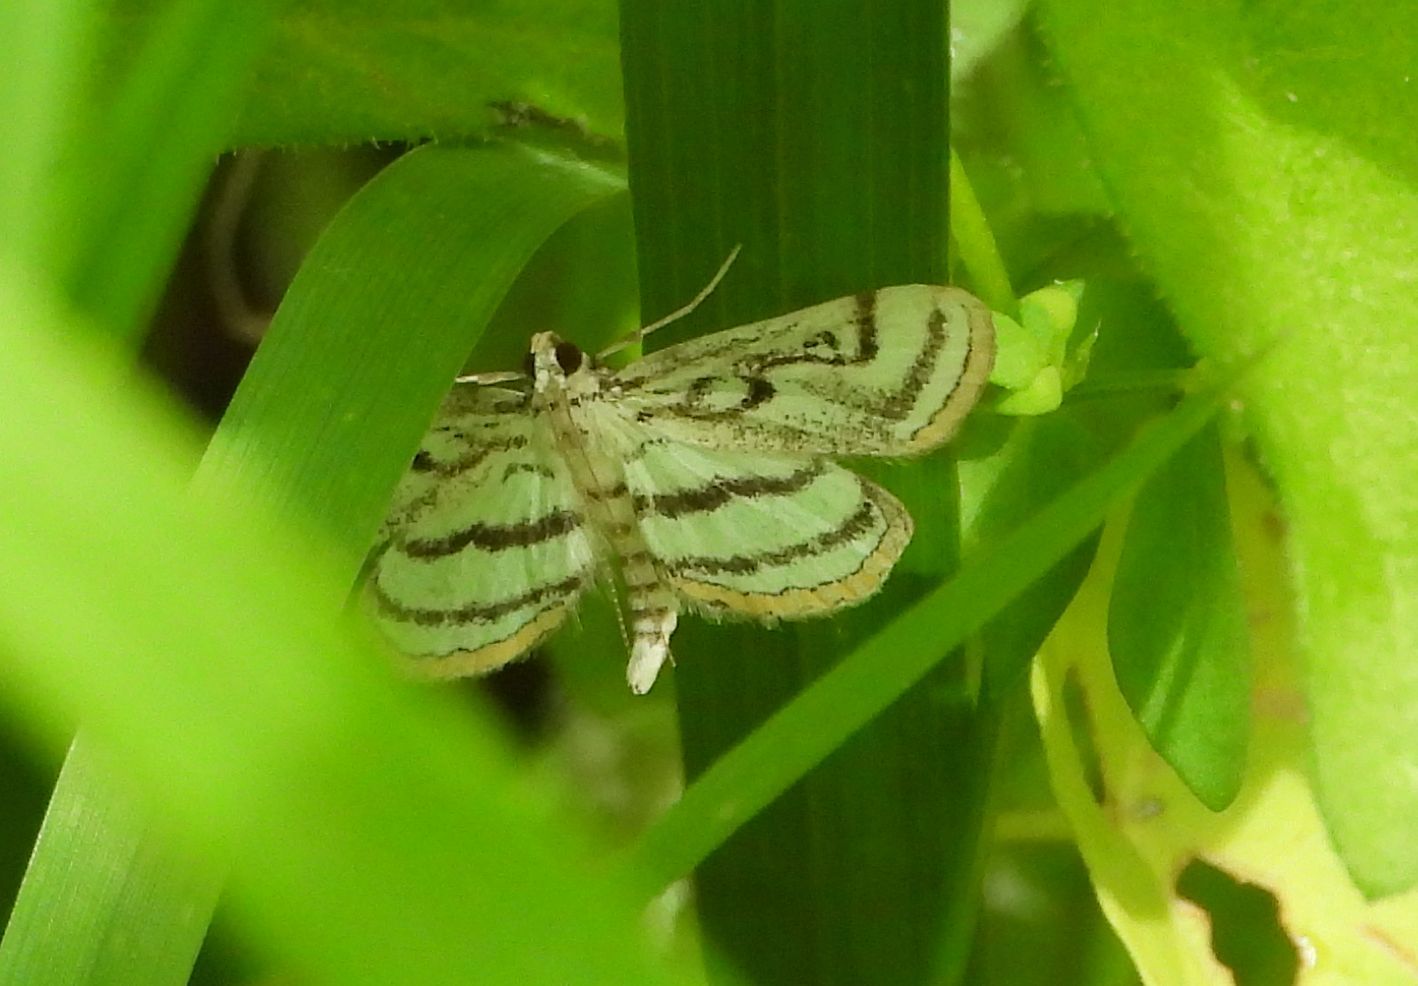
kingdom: Animalia
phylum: Arthropoda
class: Insecta
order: Lepidoptera
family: Crambidae
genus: Parapoynx
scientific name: Parapoynx badiusalis
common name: Chestnut-marked pondweed moth
